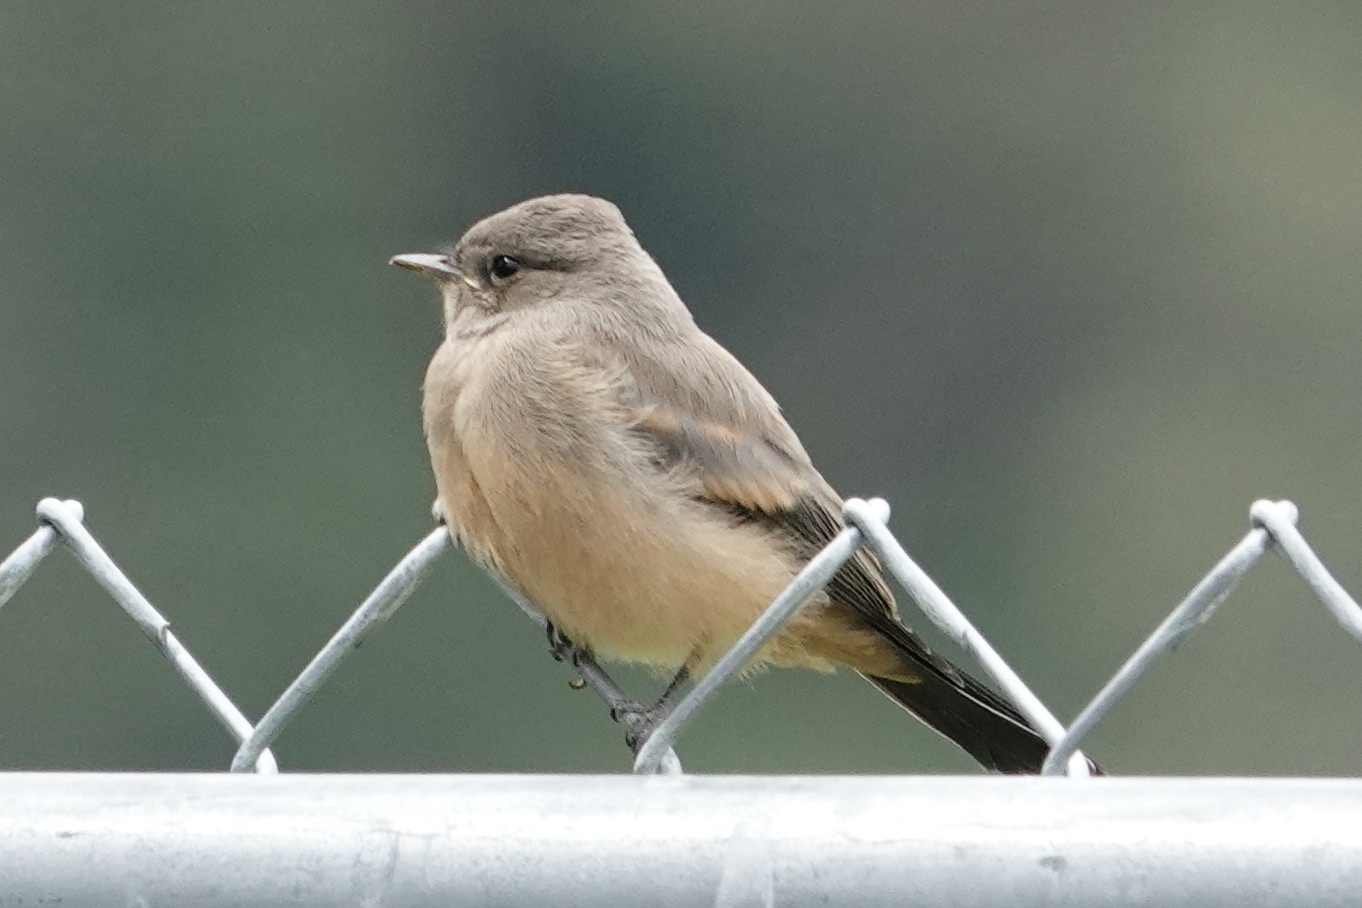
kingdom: Animalia
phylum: Chordata
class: Aves
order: Passeriformes
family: Tyrannidae
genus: Sayornis
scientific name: Sayornis saya
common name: Say's phoebe
